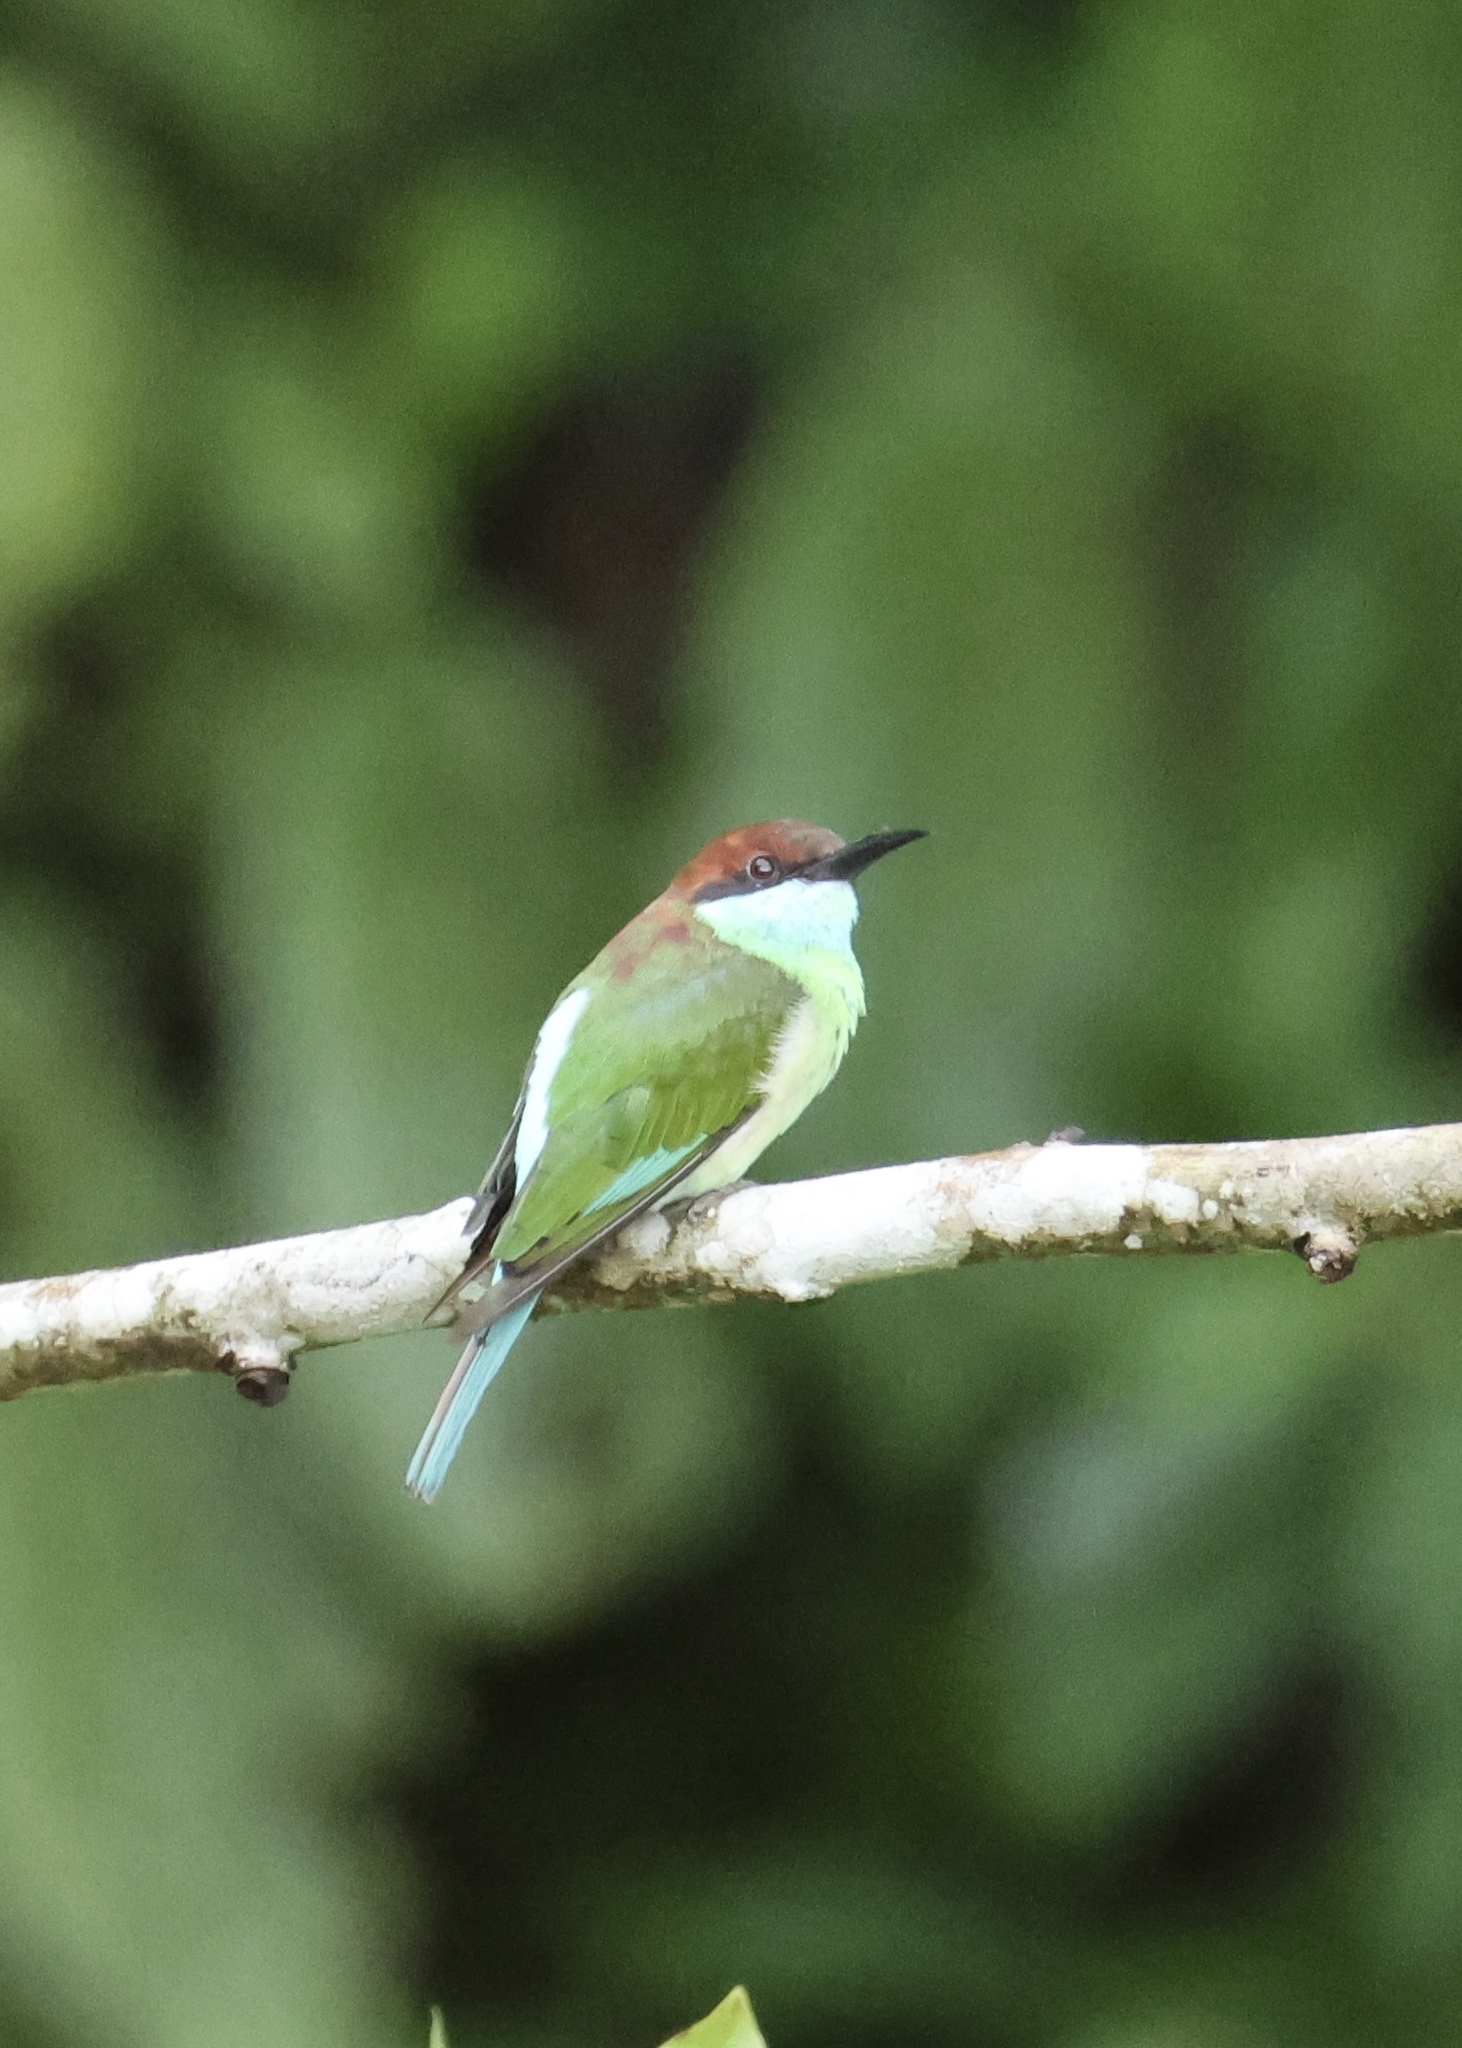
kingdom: Animalia
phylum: Chordata
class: Aves
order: Coraciiformes
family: Meropidae
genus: Merops
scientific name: Merops viridis
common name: Blue-throated bee-eater
